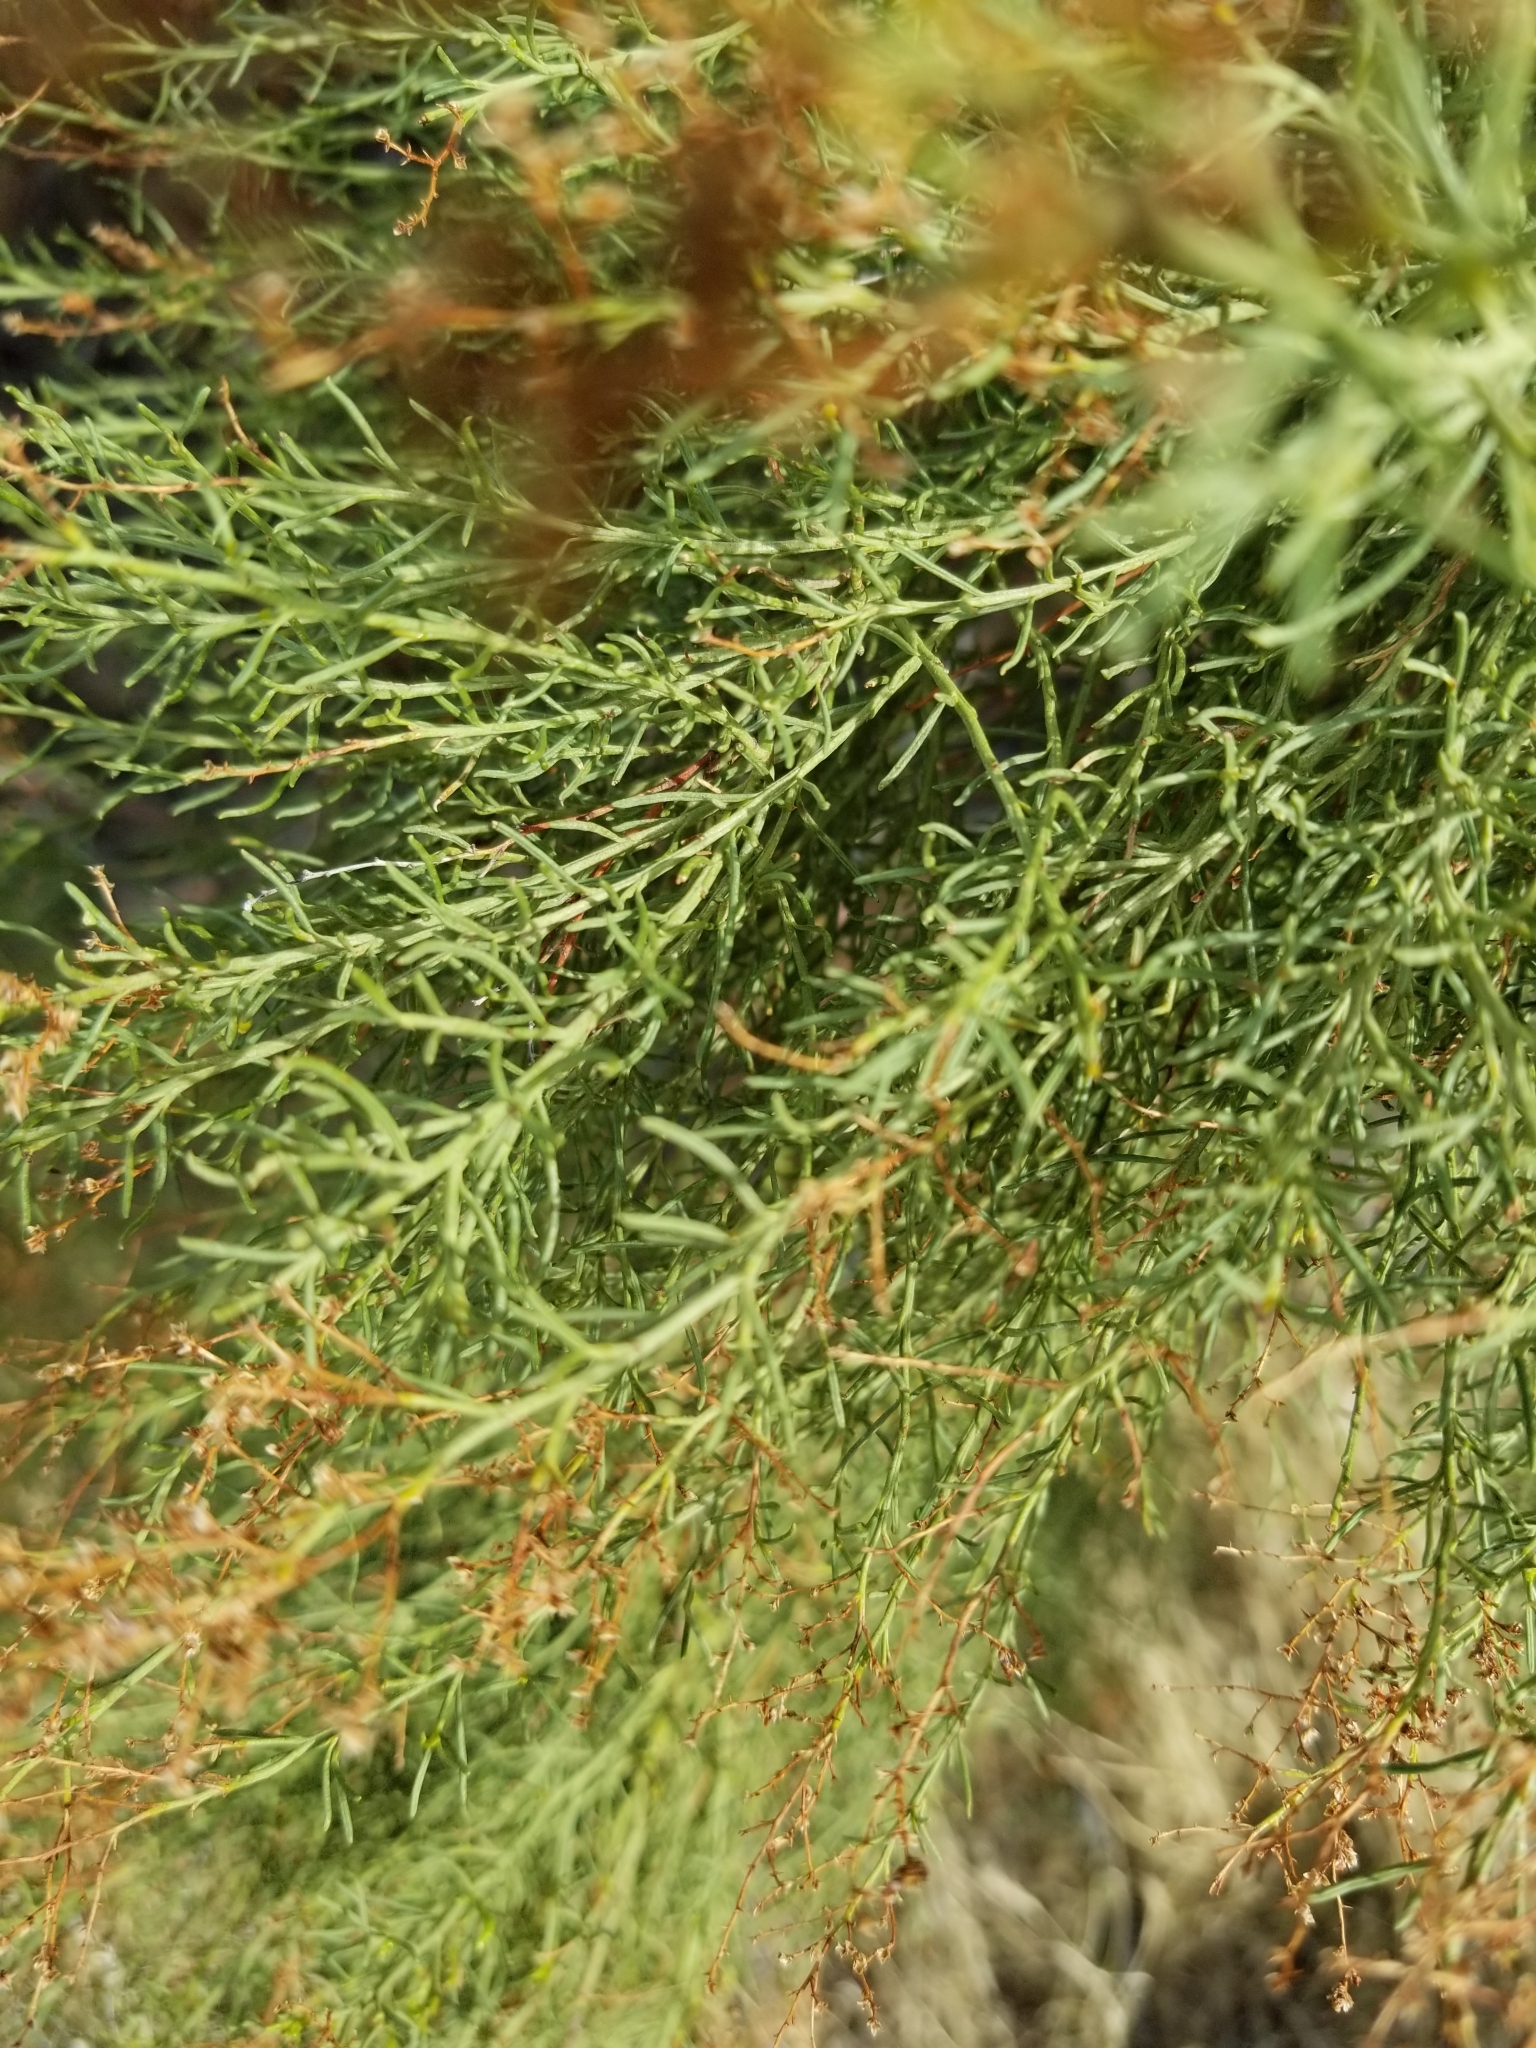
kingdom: Plantae
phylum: Tracheophyta
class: Magnoliopsida
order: Rosales
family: Rosaceae
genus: Adenostoma
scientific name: Adenostoma sparsifolium
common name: Red shank
